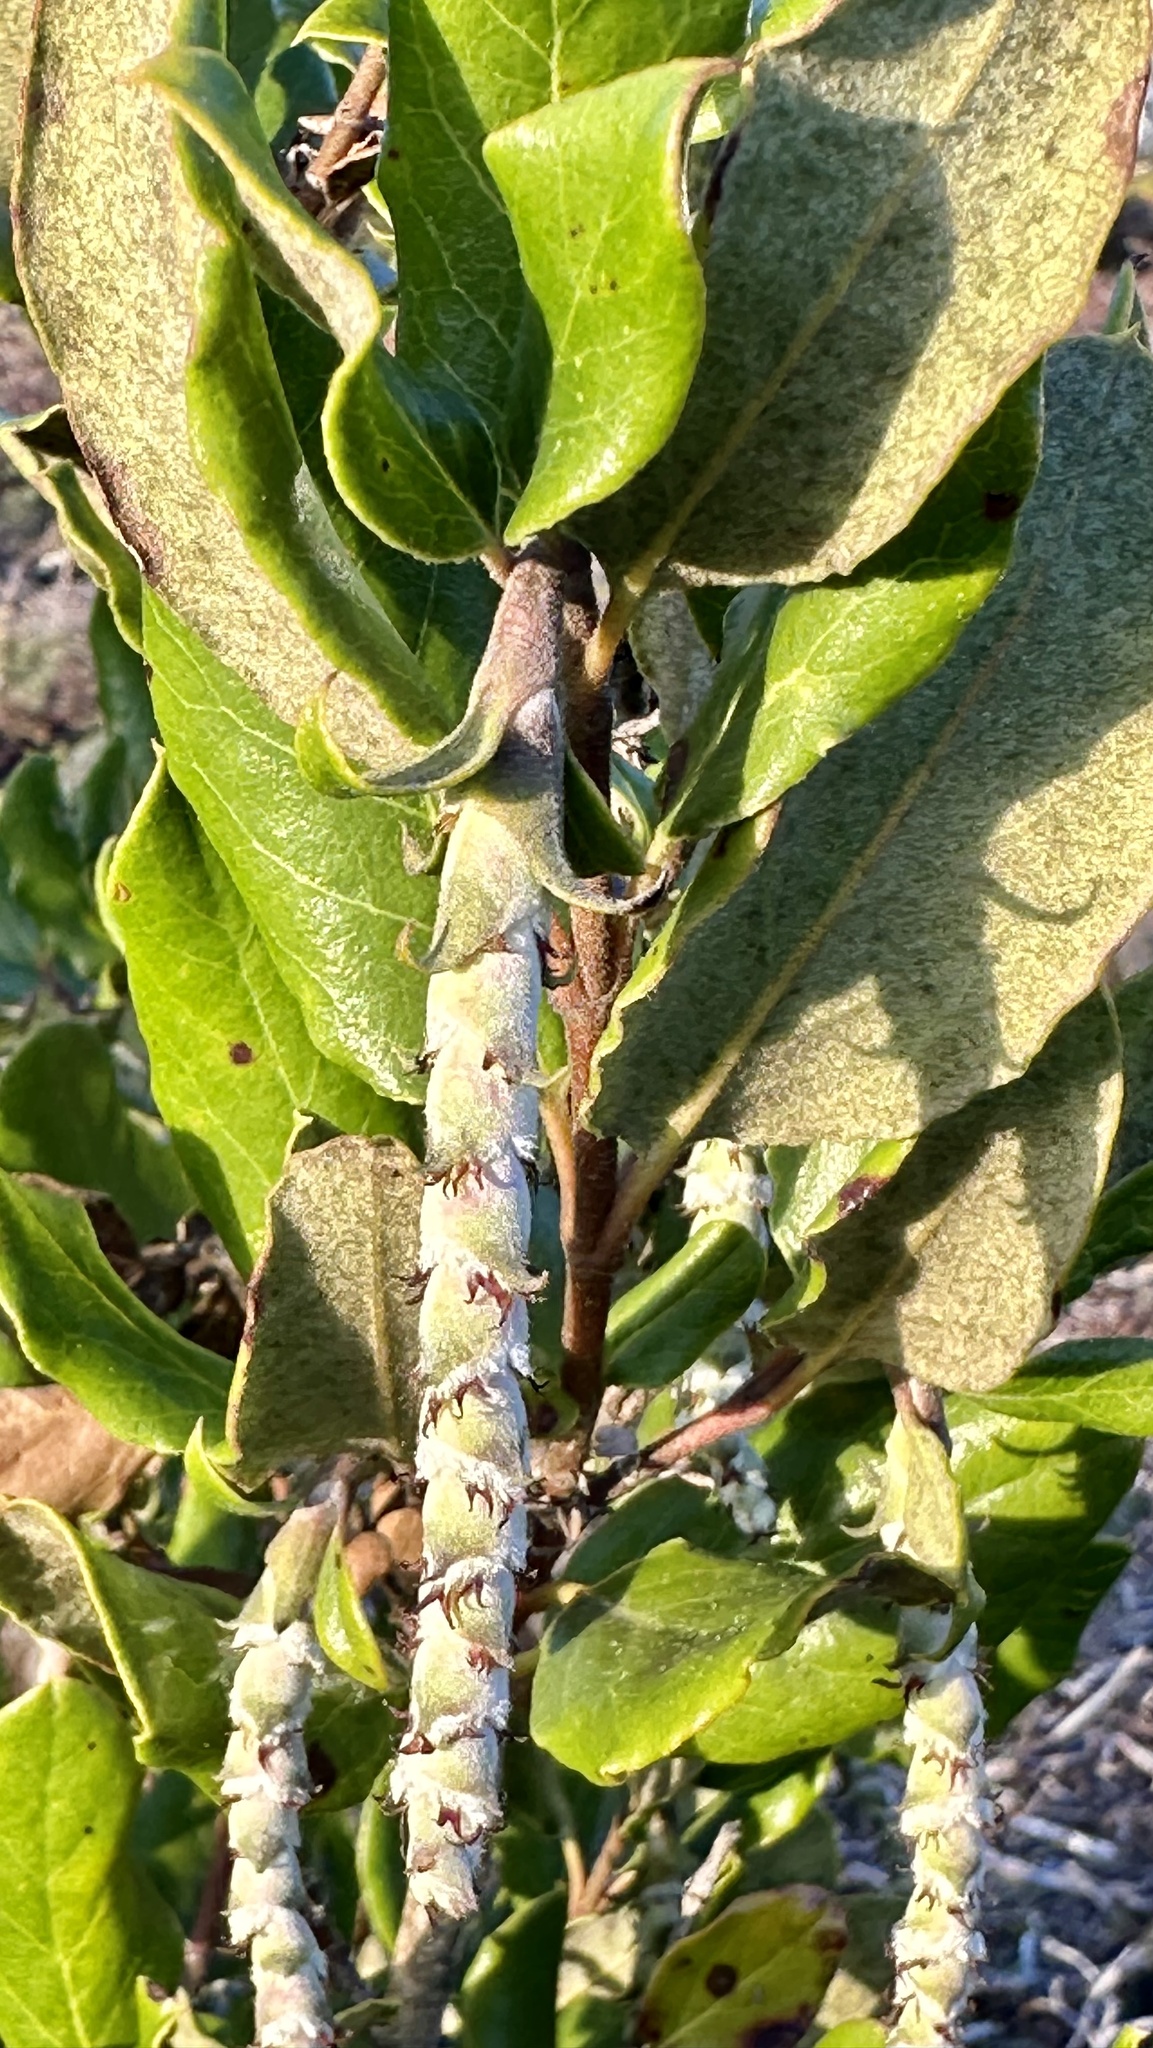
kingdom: Plantae
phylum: Tracheophyta
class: Magnoliopsida
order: Garryales
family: Garryaceae
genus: Garrya
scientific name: Garrya elliptica
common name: Silk-tassel
